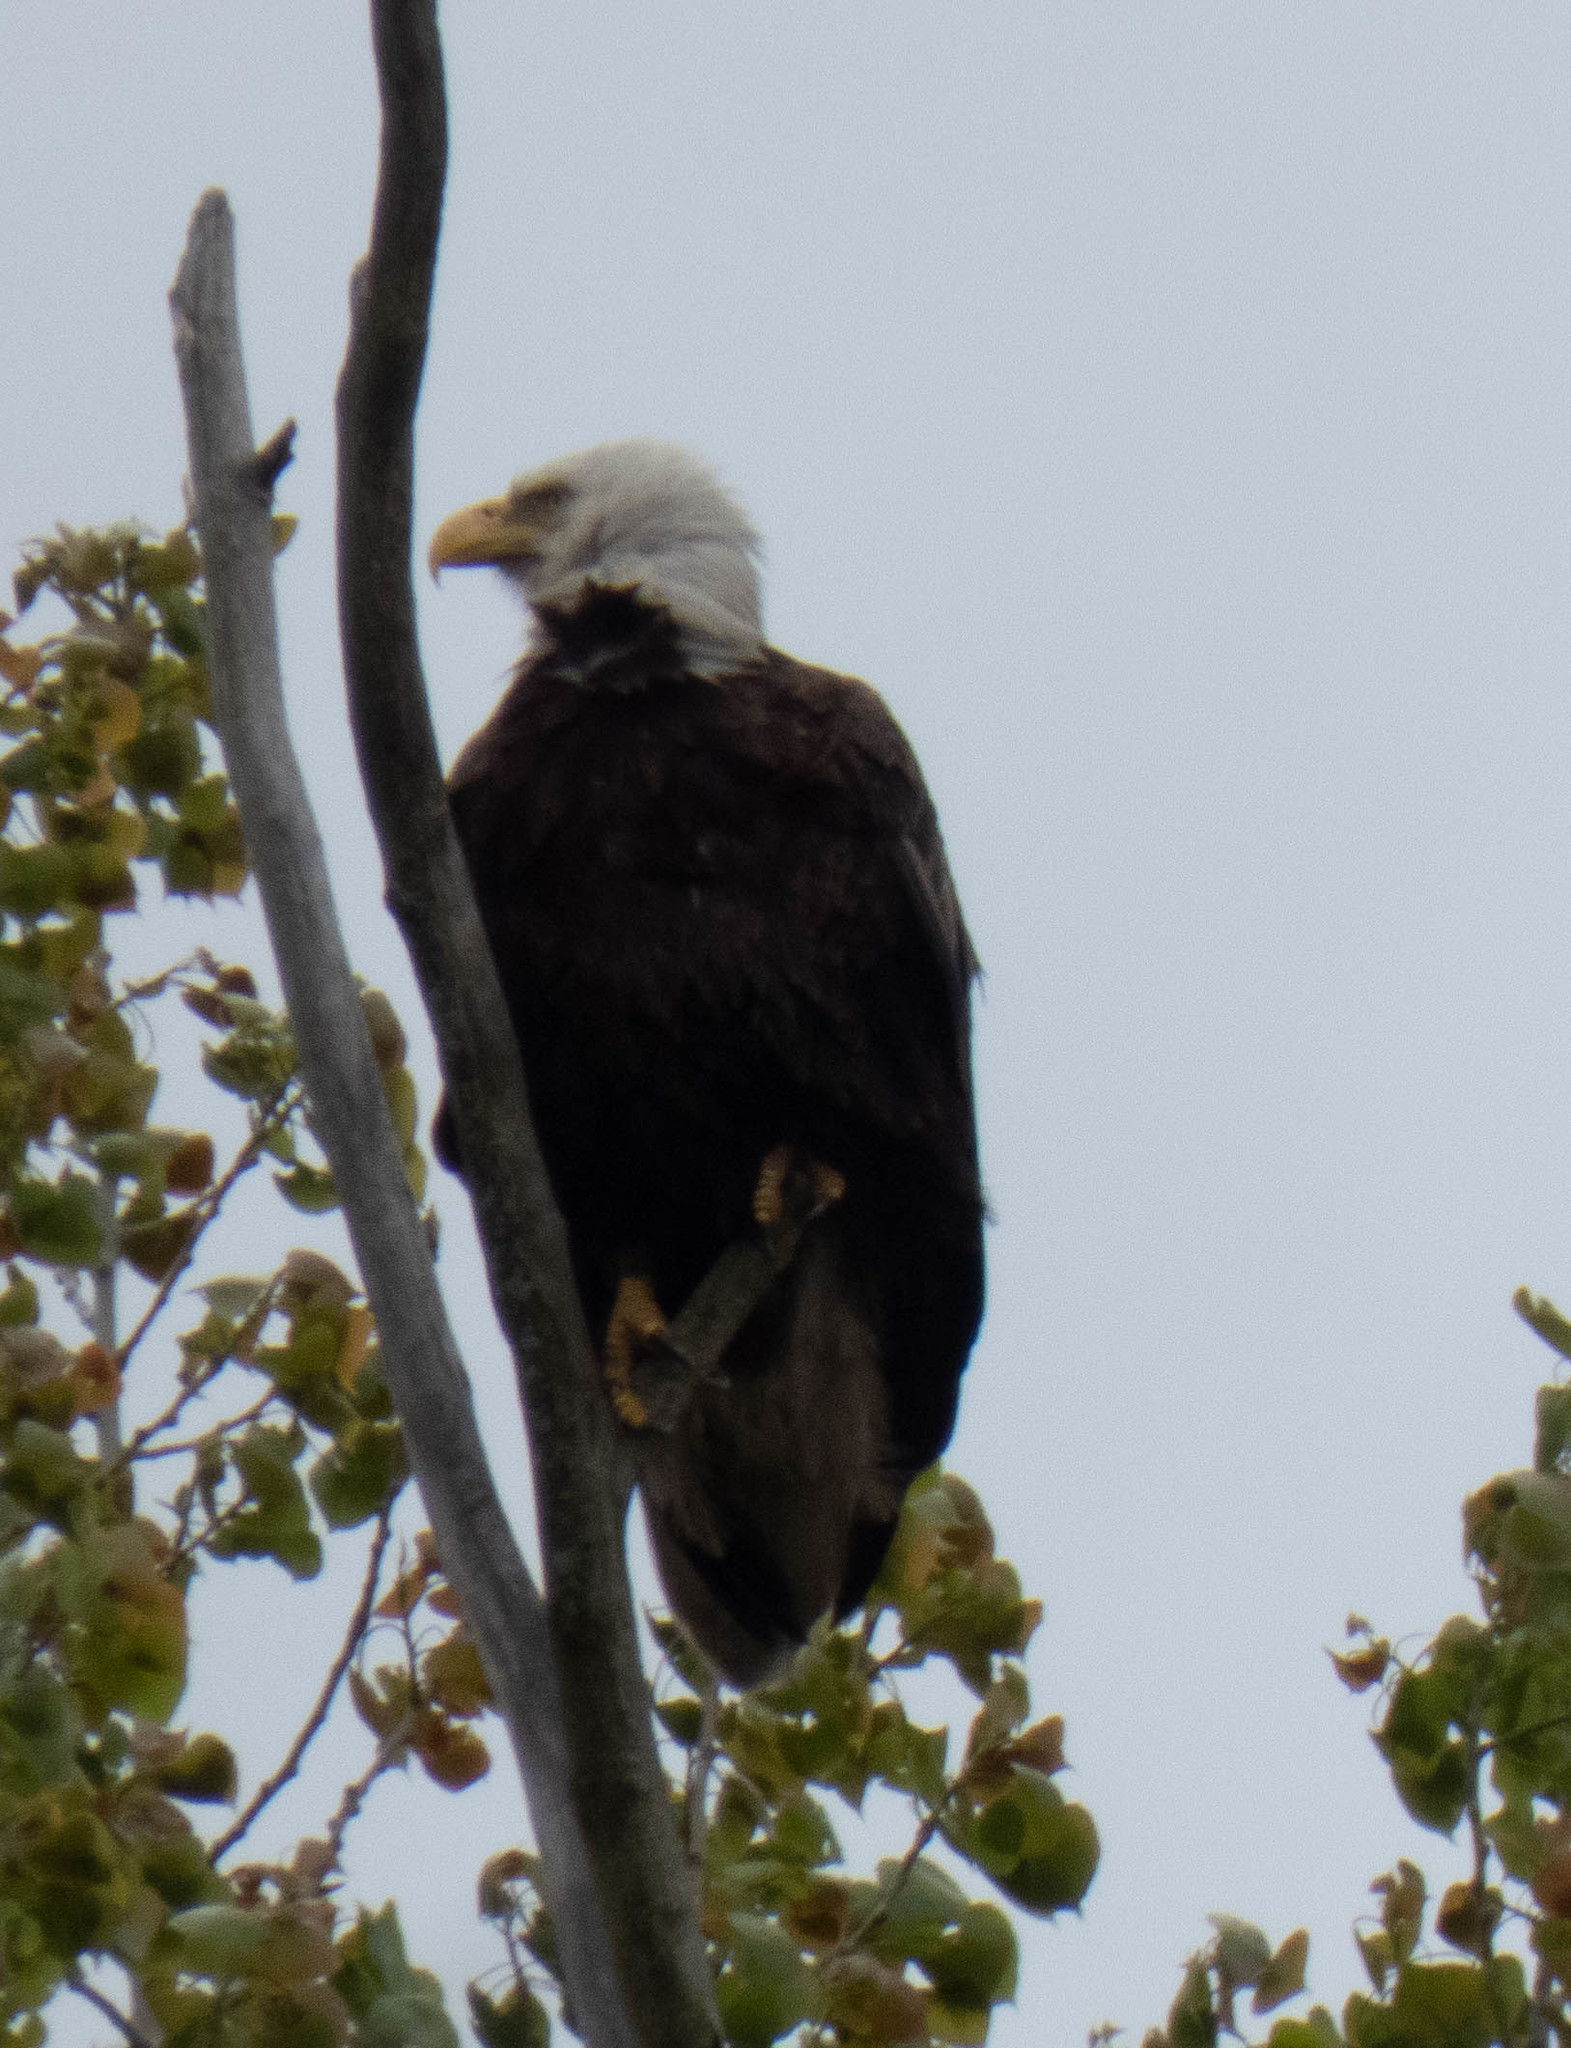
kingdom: Animalia
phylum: Chordata
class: Aves
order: Accipitriformes
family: Accipitridae
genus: Haliaeetus
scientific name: Haliaeetus leucocephalus
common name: Bald eagle
